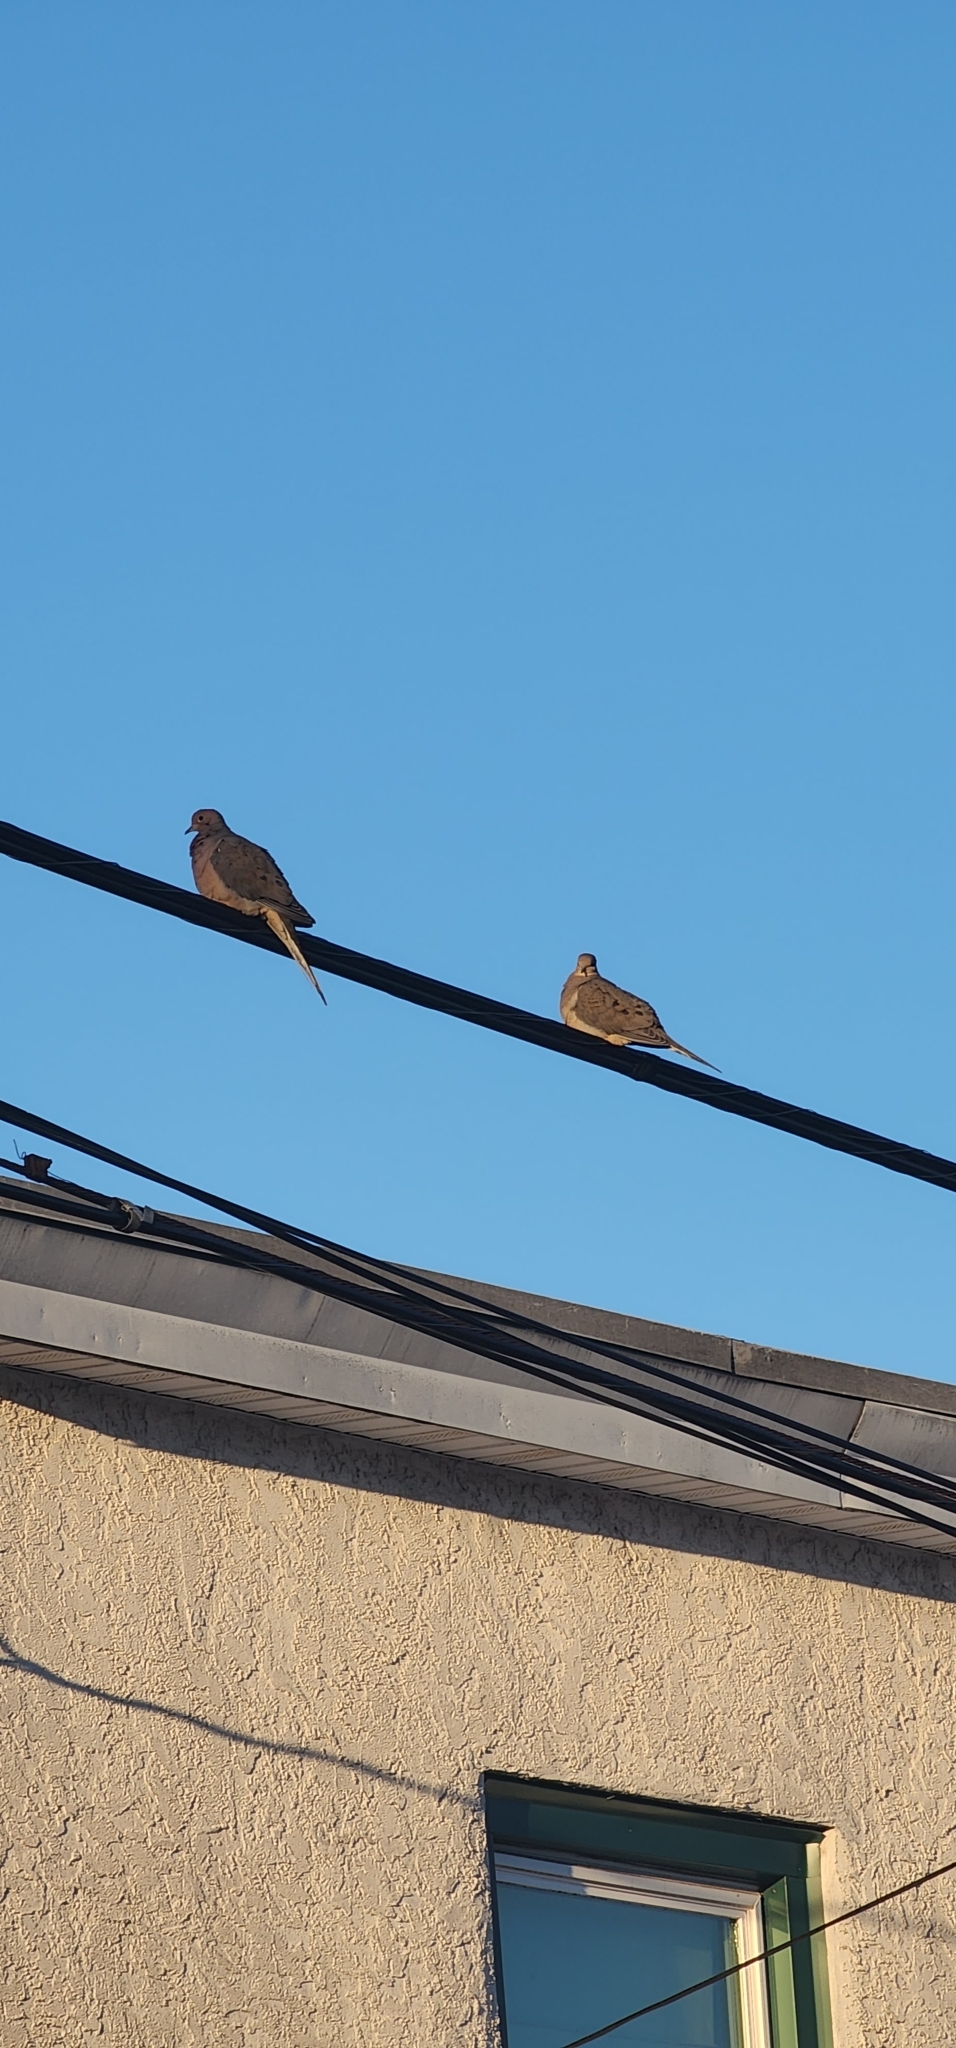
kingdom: Animalia
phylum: Chordata
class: Aves
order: Columbiformes
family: Columbidae
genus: Zenaida
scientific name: Zenaida macroura
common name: Mourning dove
